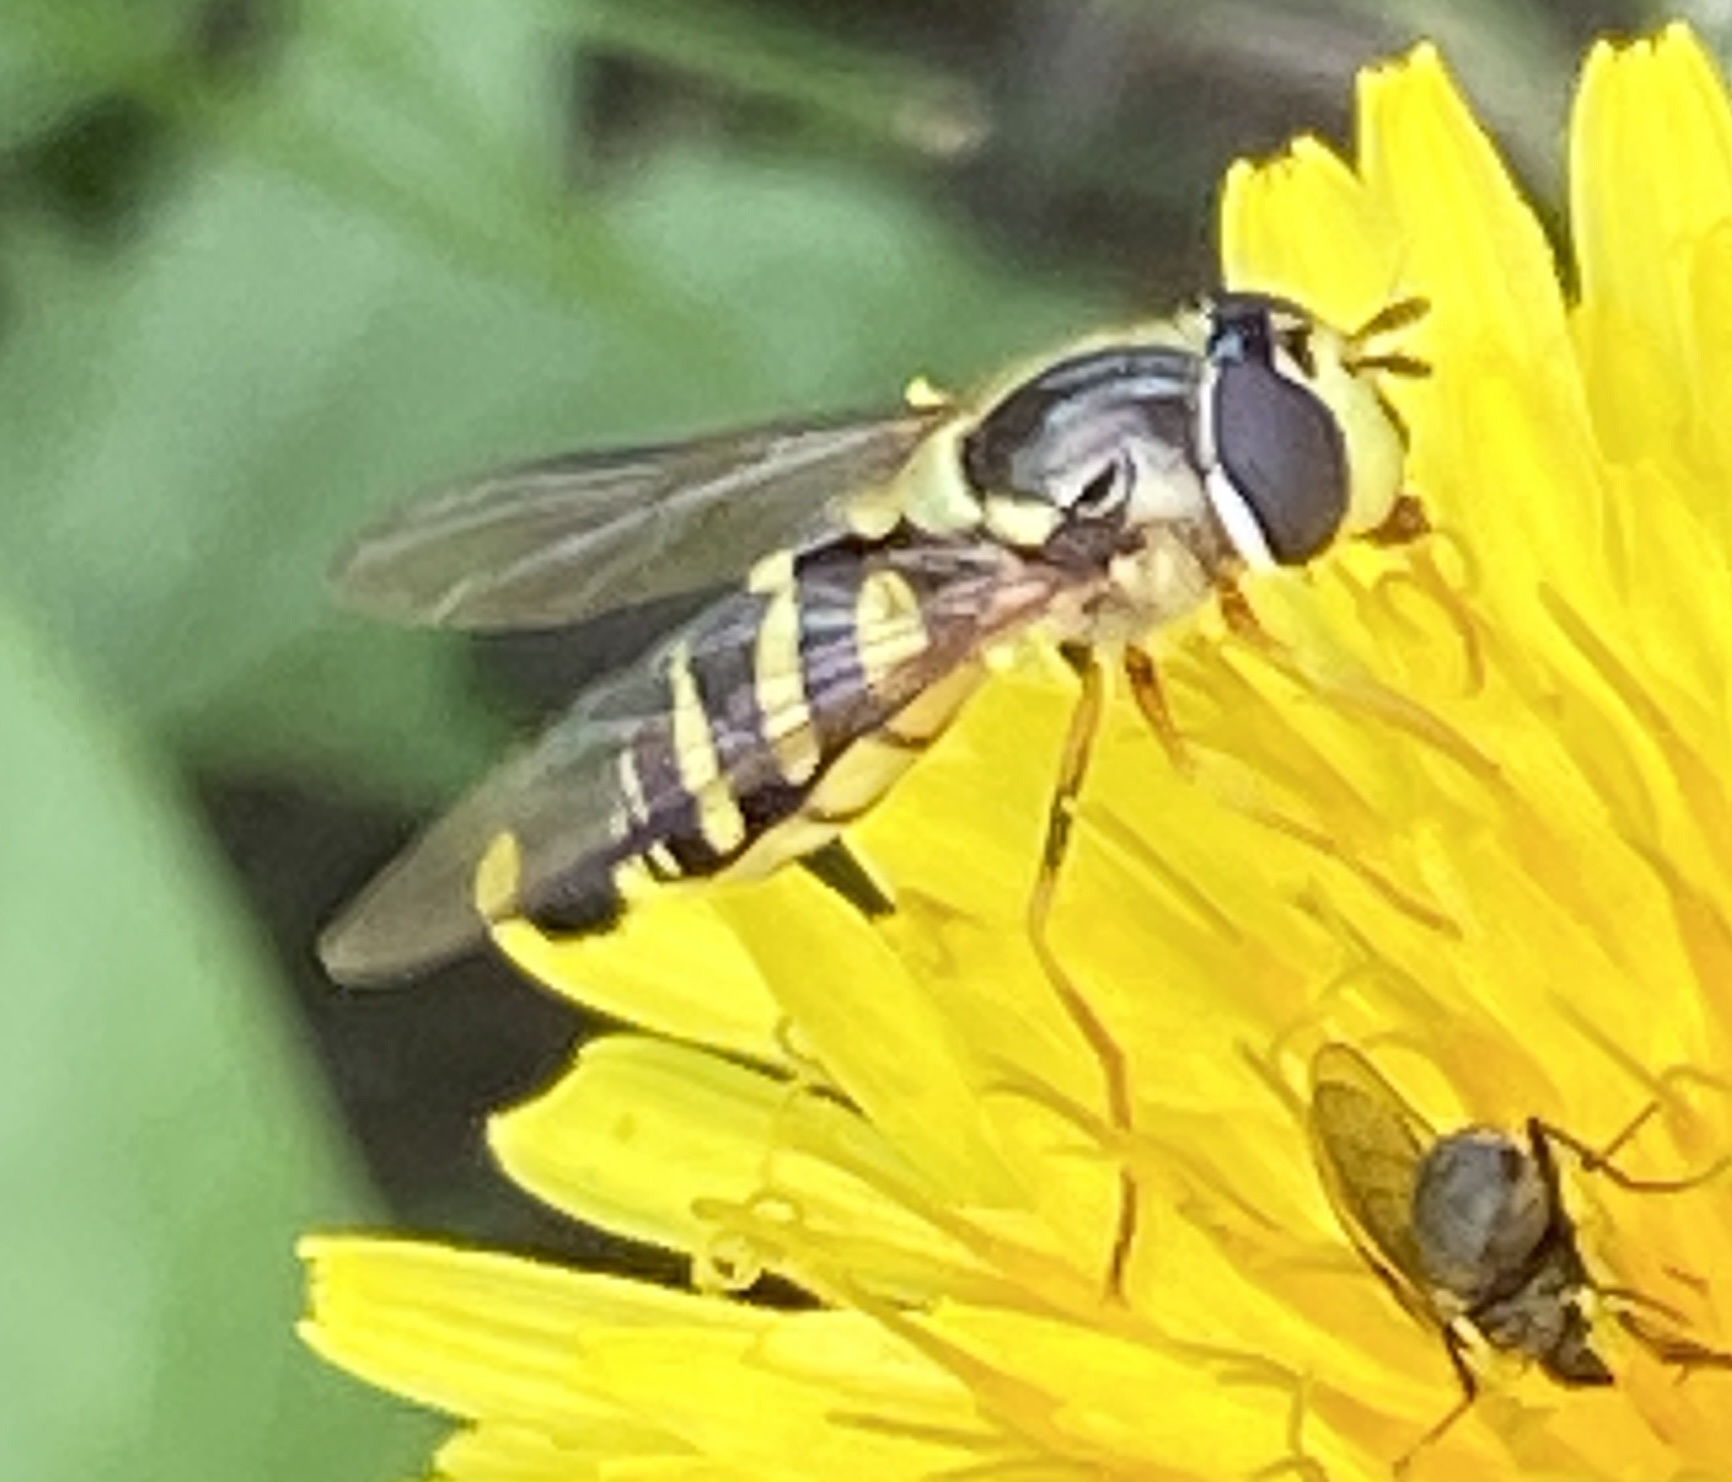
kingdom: Animalia
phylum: Arthropoda
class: Insecta
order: Diptera
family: Syrphidae
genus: Dasysyrphus
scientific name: Dasysyrphus albostriatus
